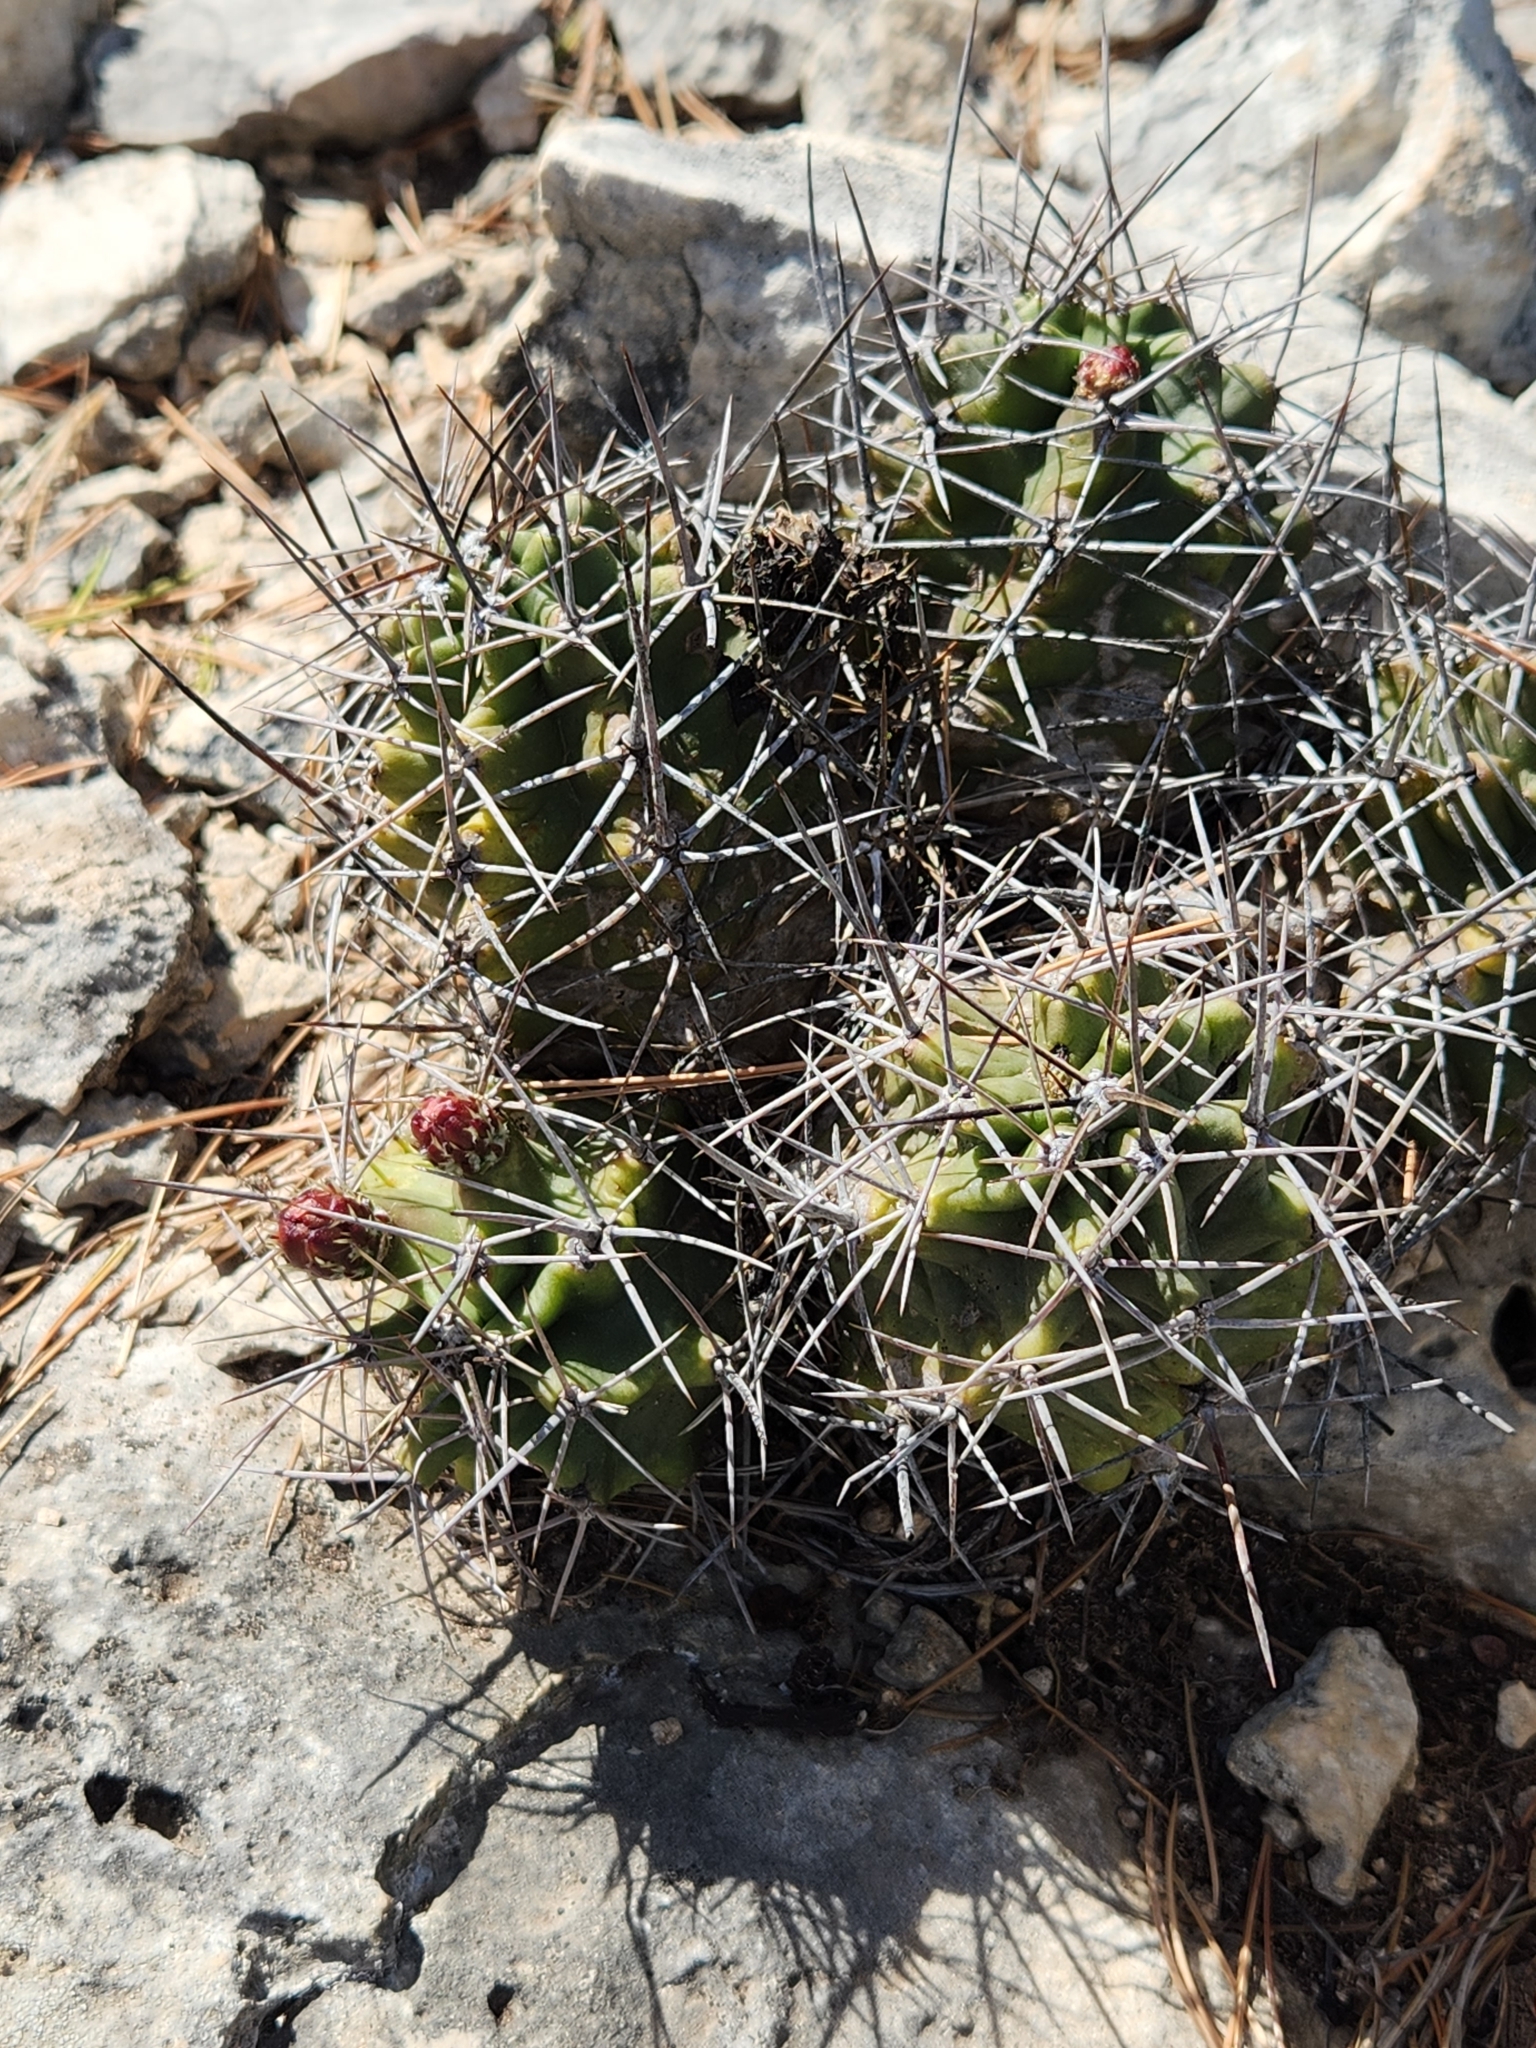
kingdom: Plantae
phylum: Tracheophyta
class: Magnoliopsida
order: Caryophyllales
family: Cactaceae
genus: Echinocereus
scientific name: Echinocereus coccineus
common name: Scarlet hedgehog cactus
